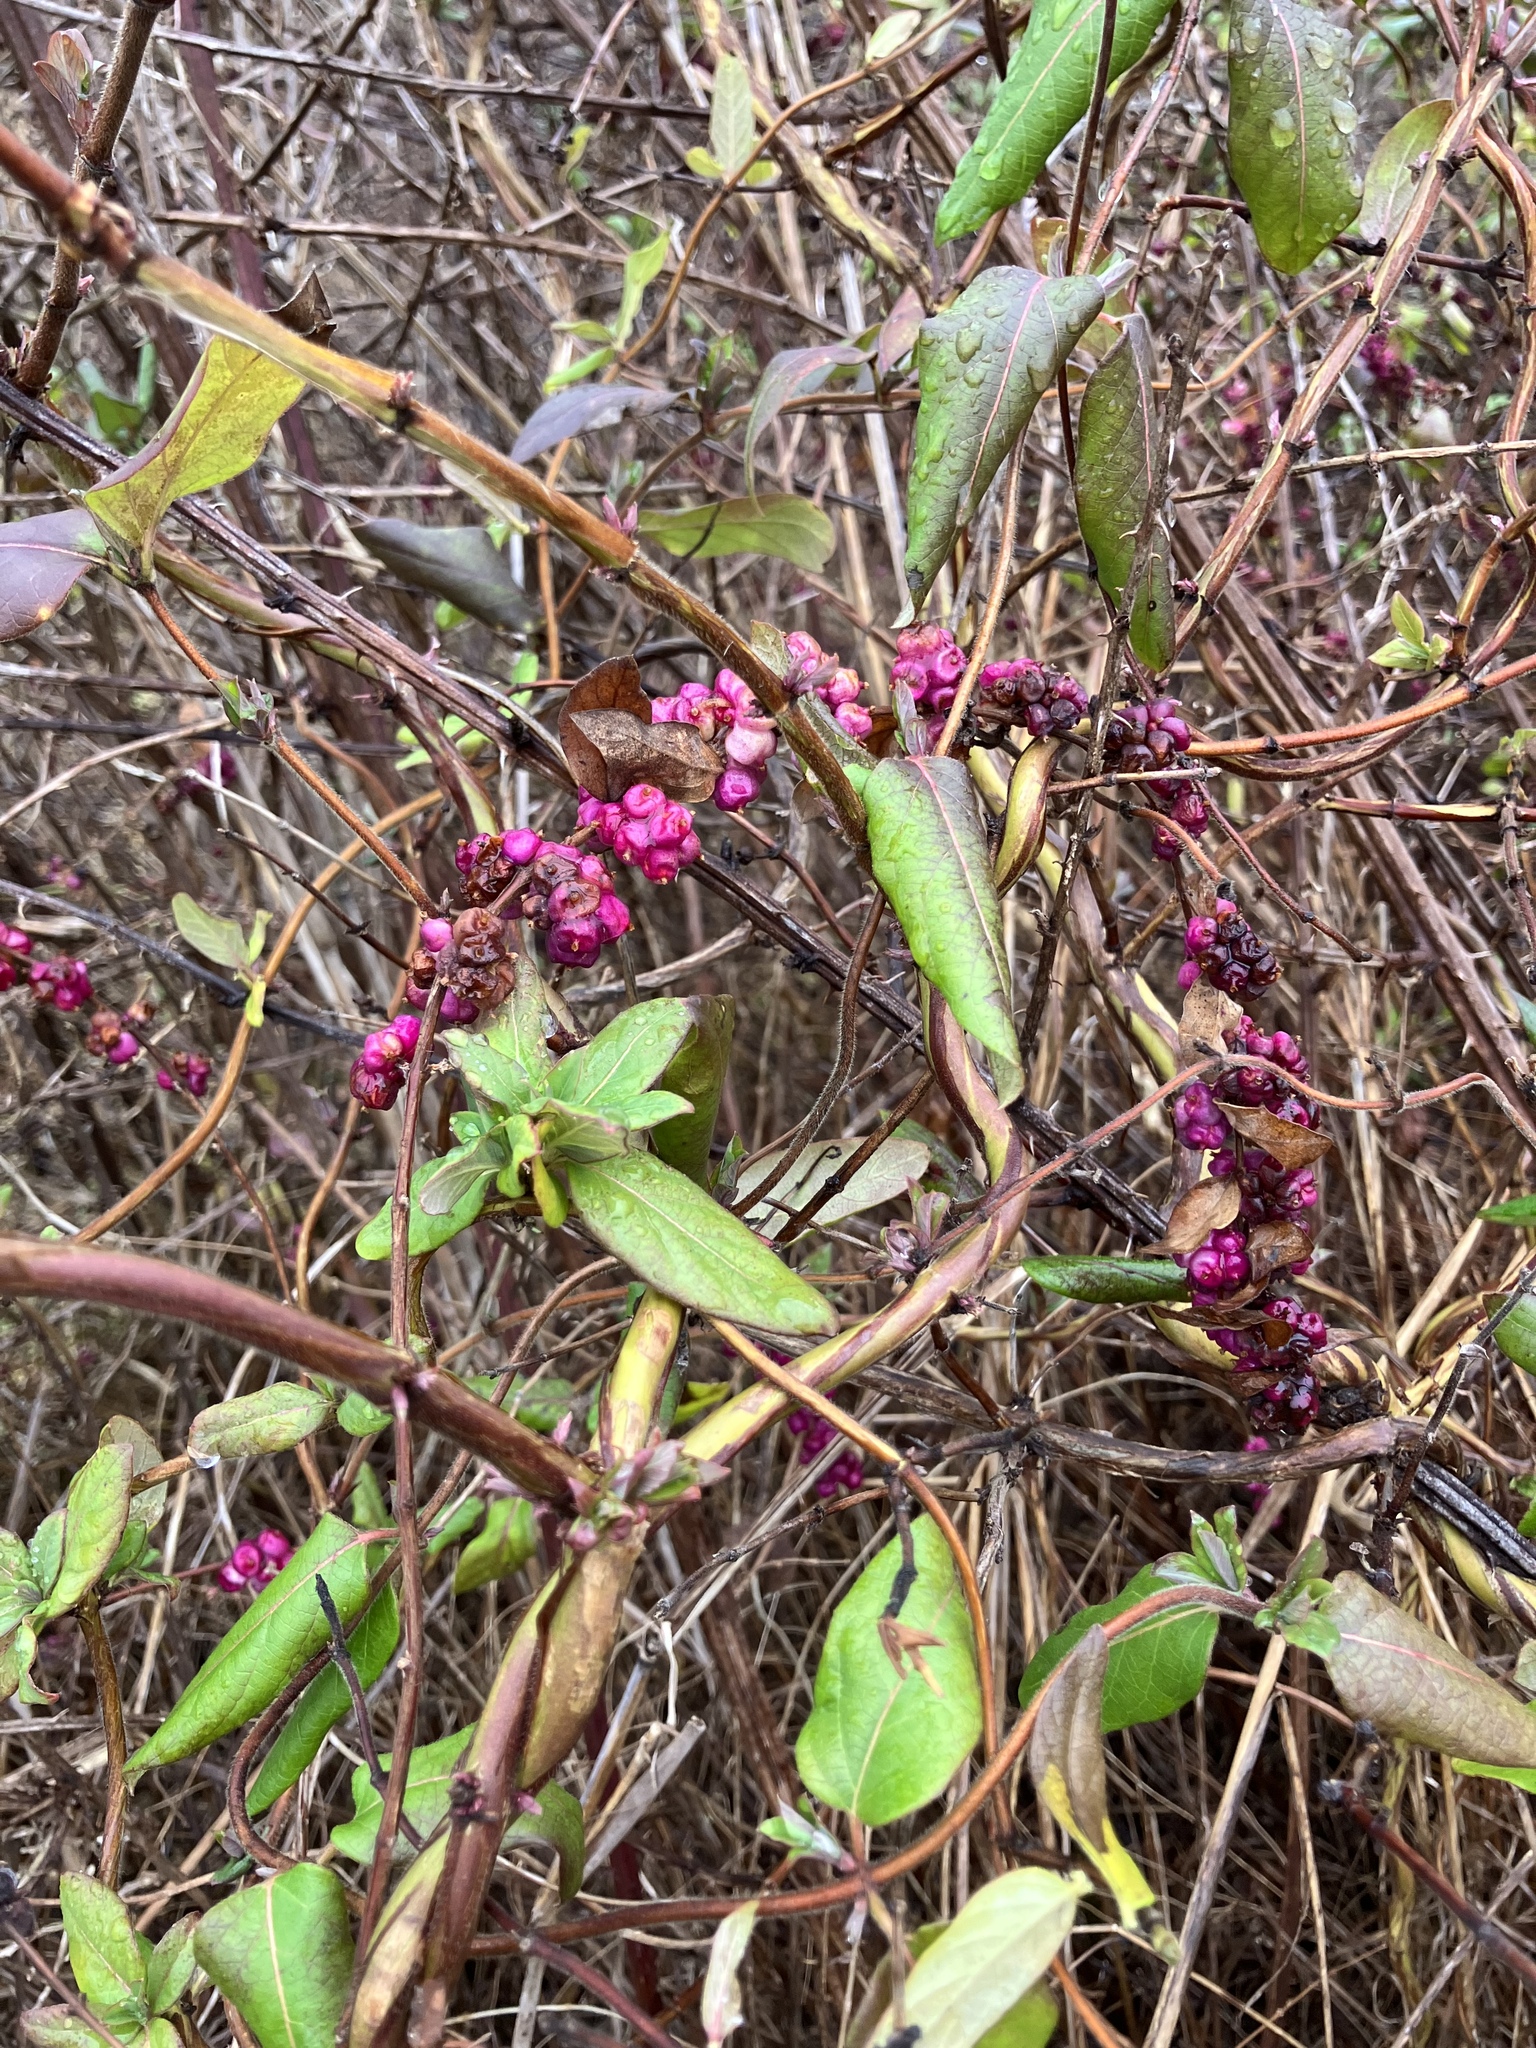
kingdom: Plantae
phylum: Tracheophyta
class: Magnoliopsida
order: Dipsacales
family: Caprifoliaceae
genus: Symphoricarpos
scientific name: Symphoricarpos orbiculatus
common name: Coralberry
